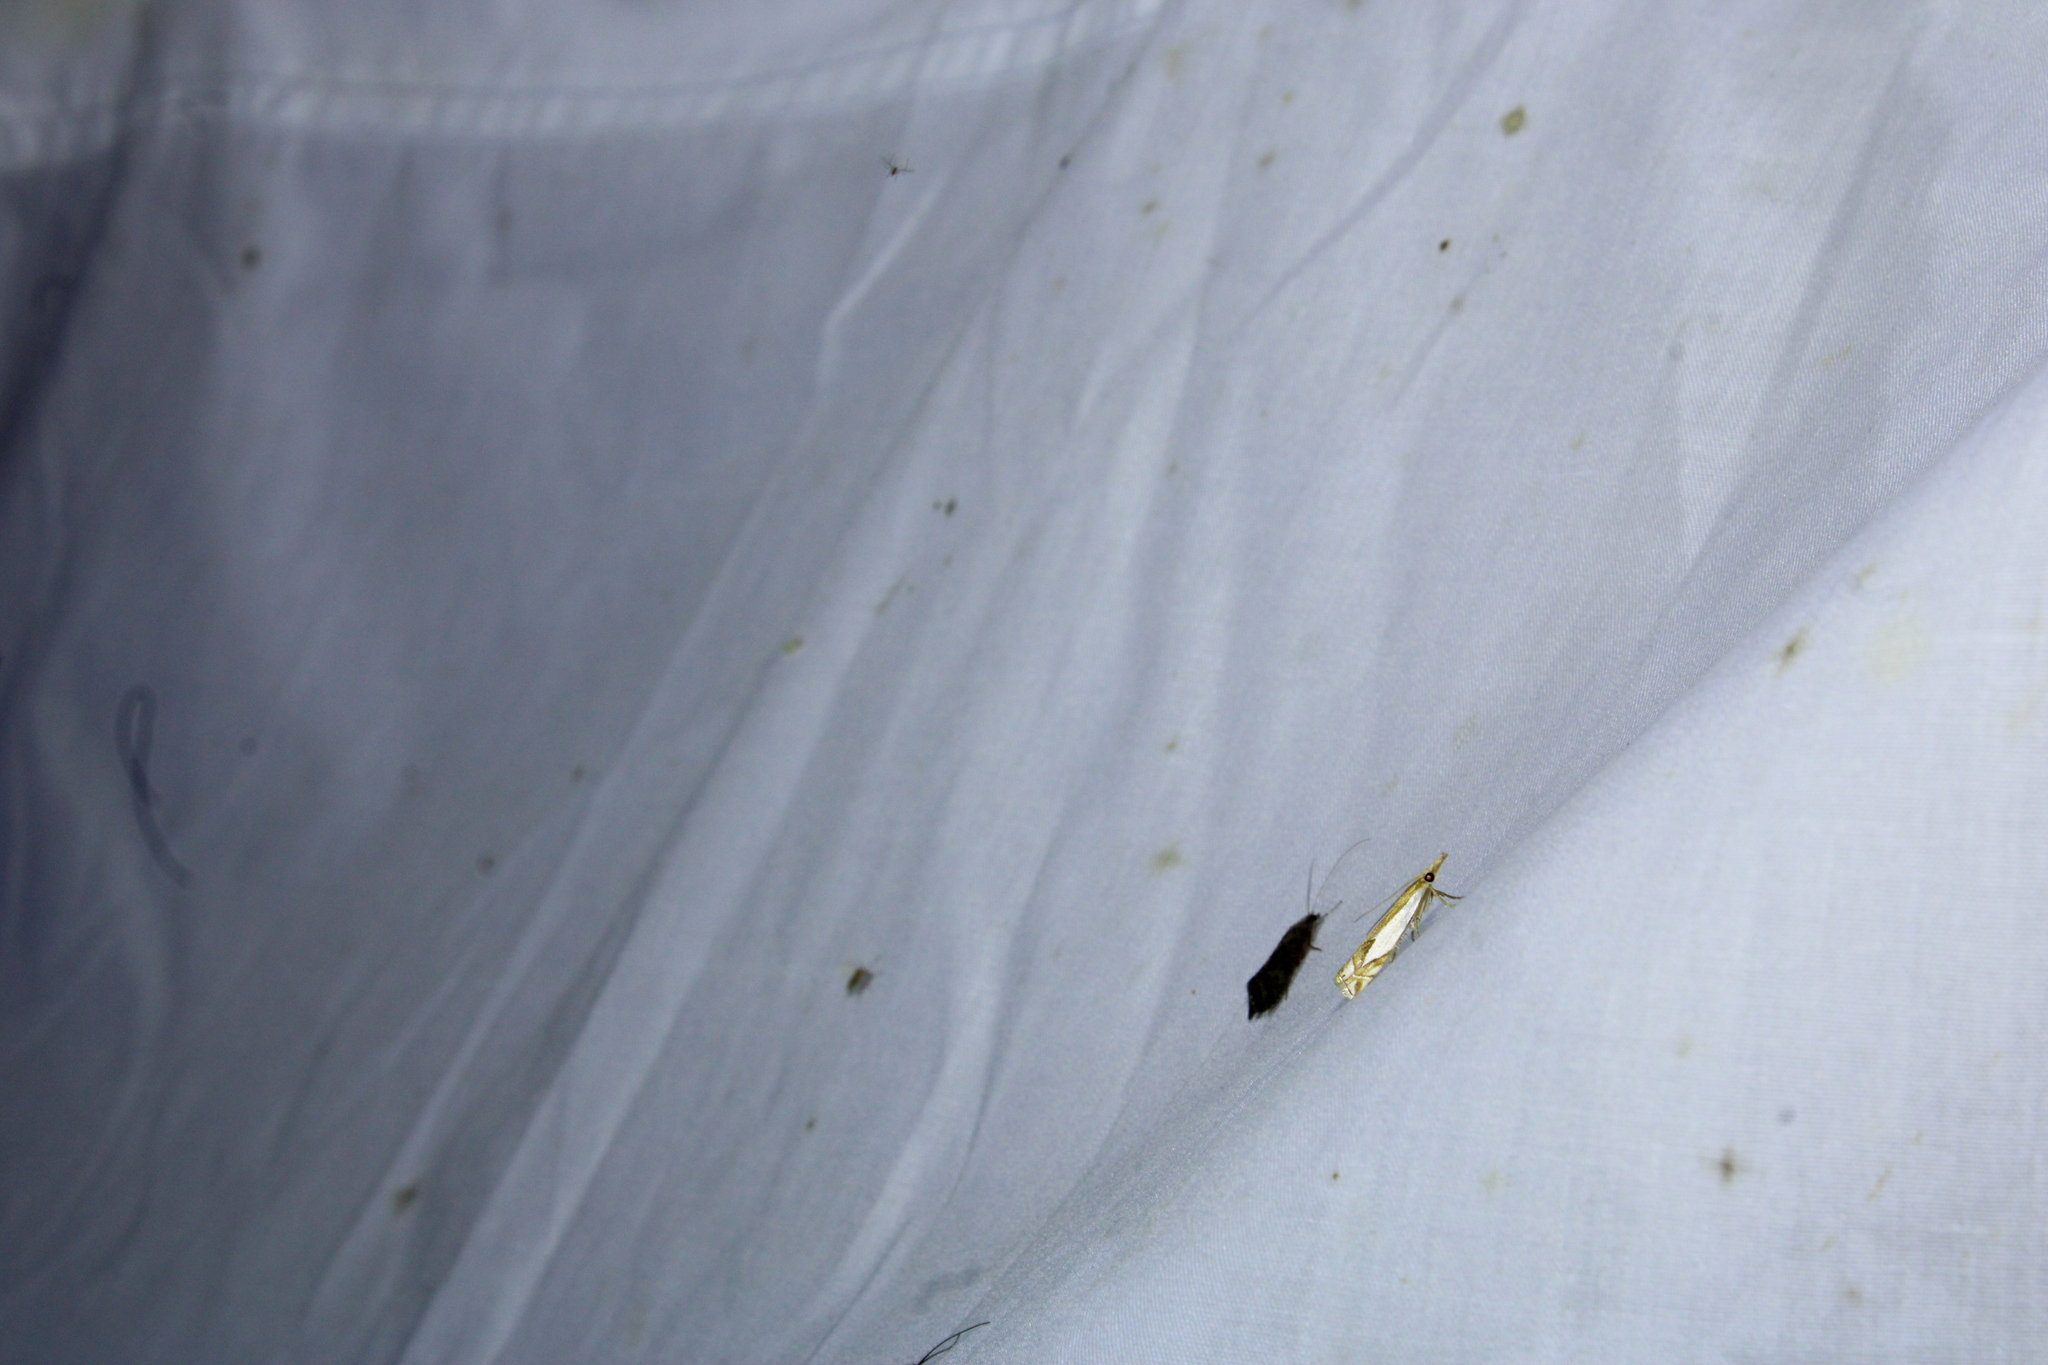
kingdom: Animalia
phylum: Arthropoda
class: Insecta
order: Lepidoptera
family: Crambidae
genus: Crambus
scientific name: Crambus bidens
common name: Forked grass-veneer
